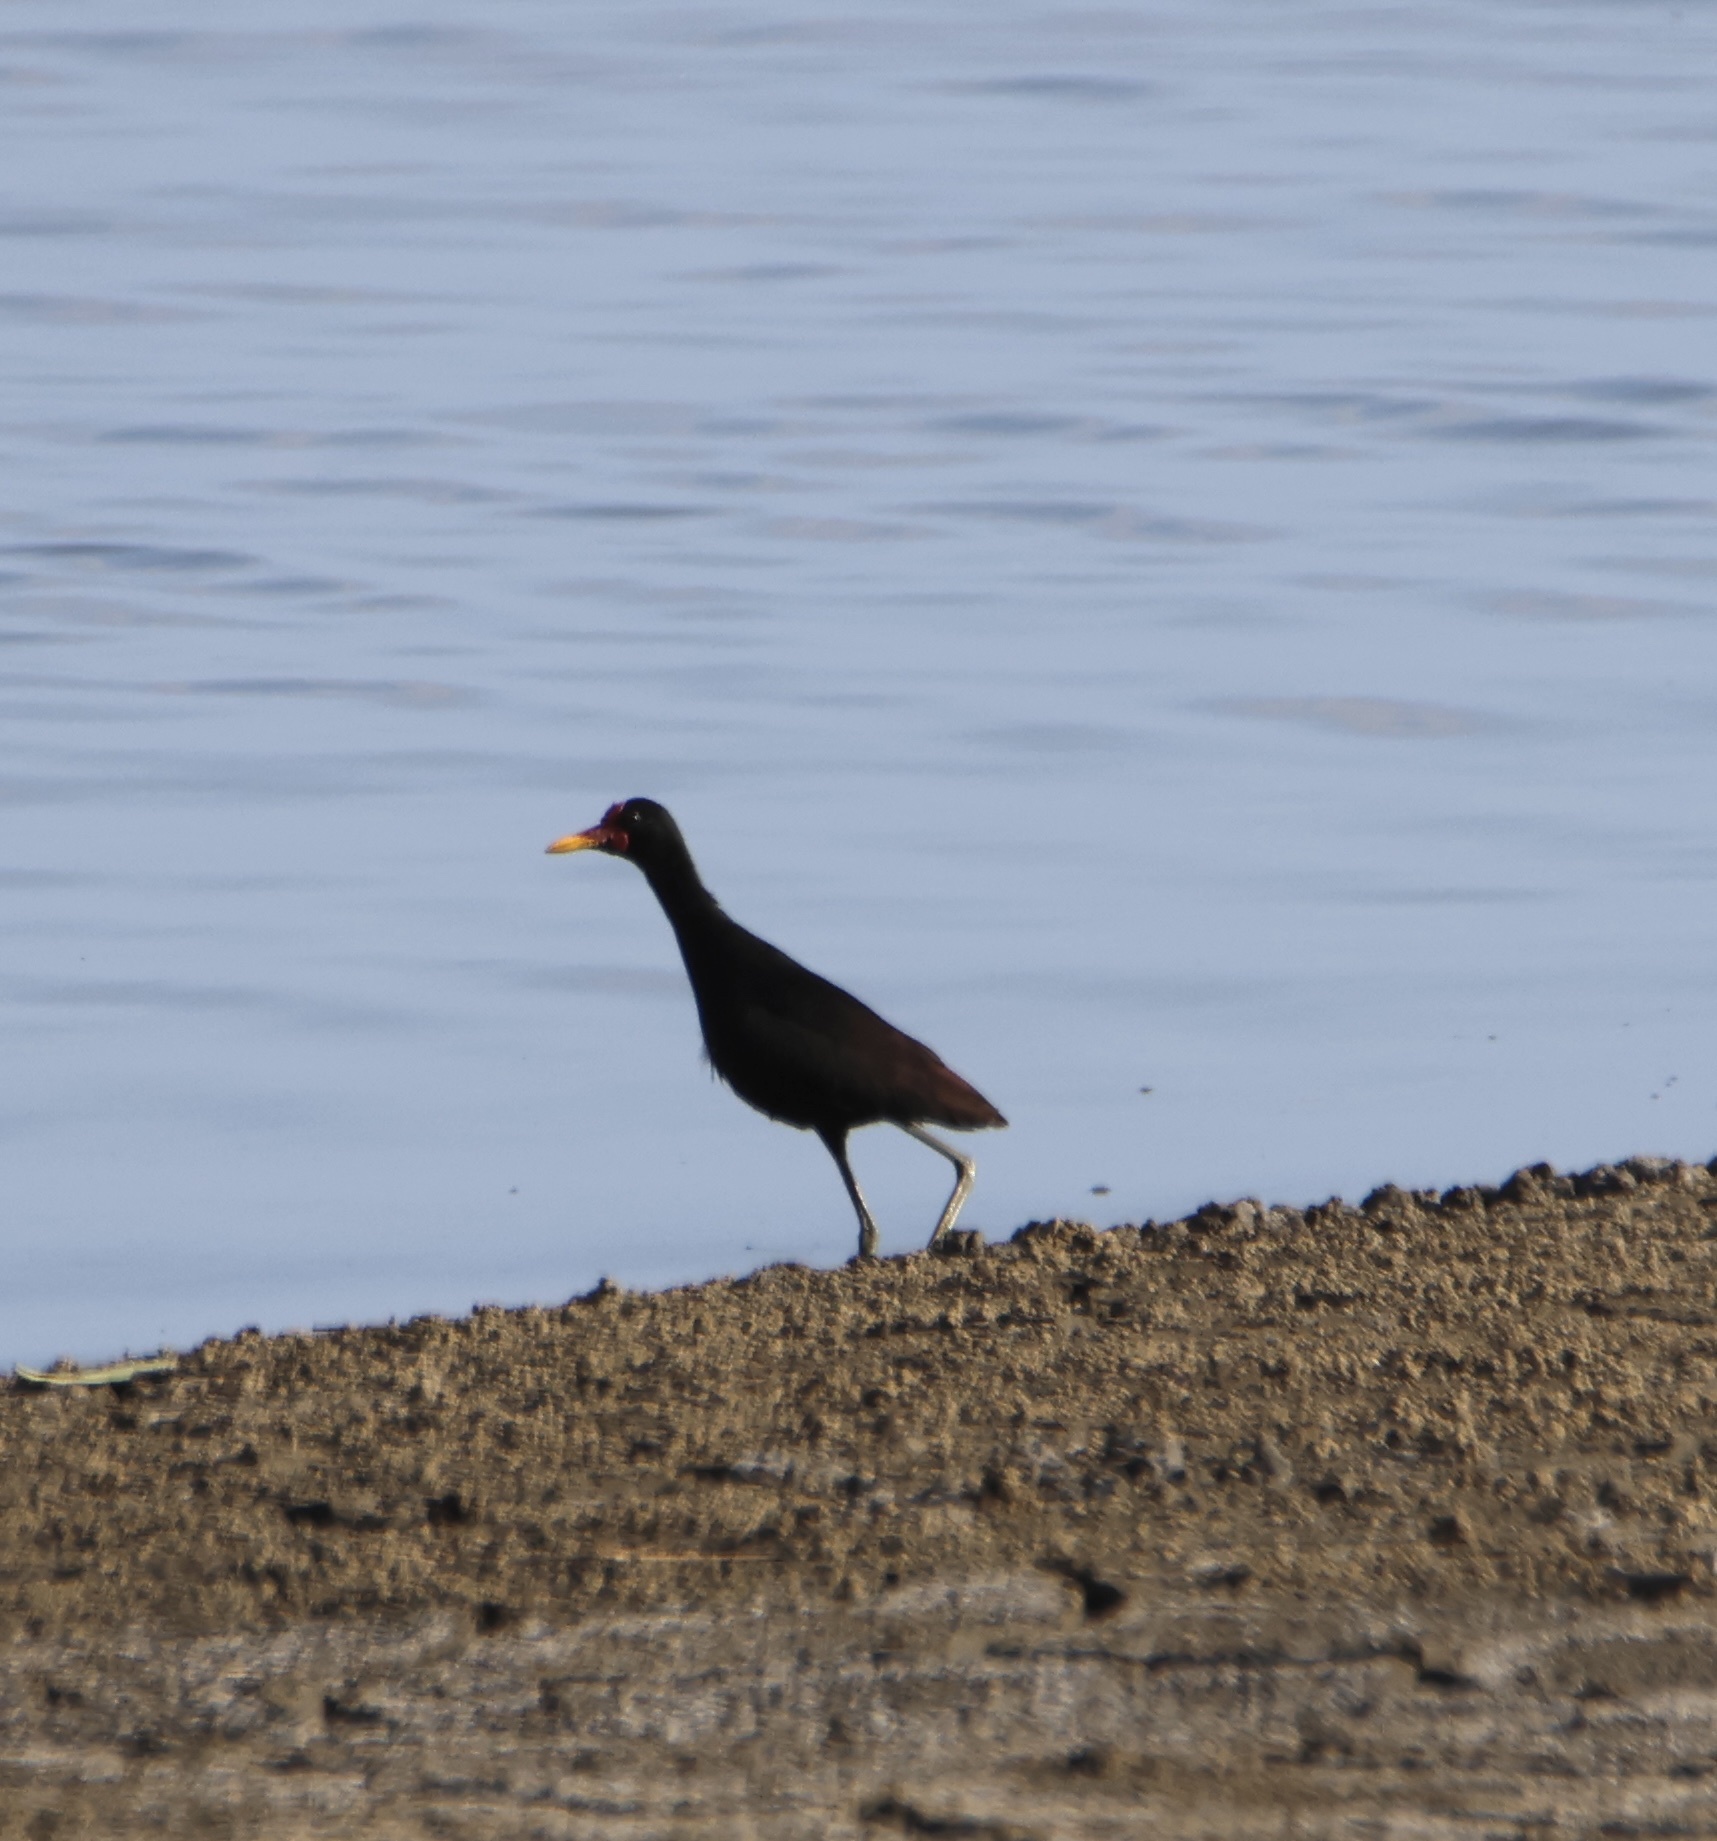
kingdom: Animalia
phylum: Chordata
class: Aves
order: Charadriiformes
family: Jacanidae
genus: Jacana
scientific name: Jacana jacana
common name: Wattled jacana
